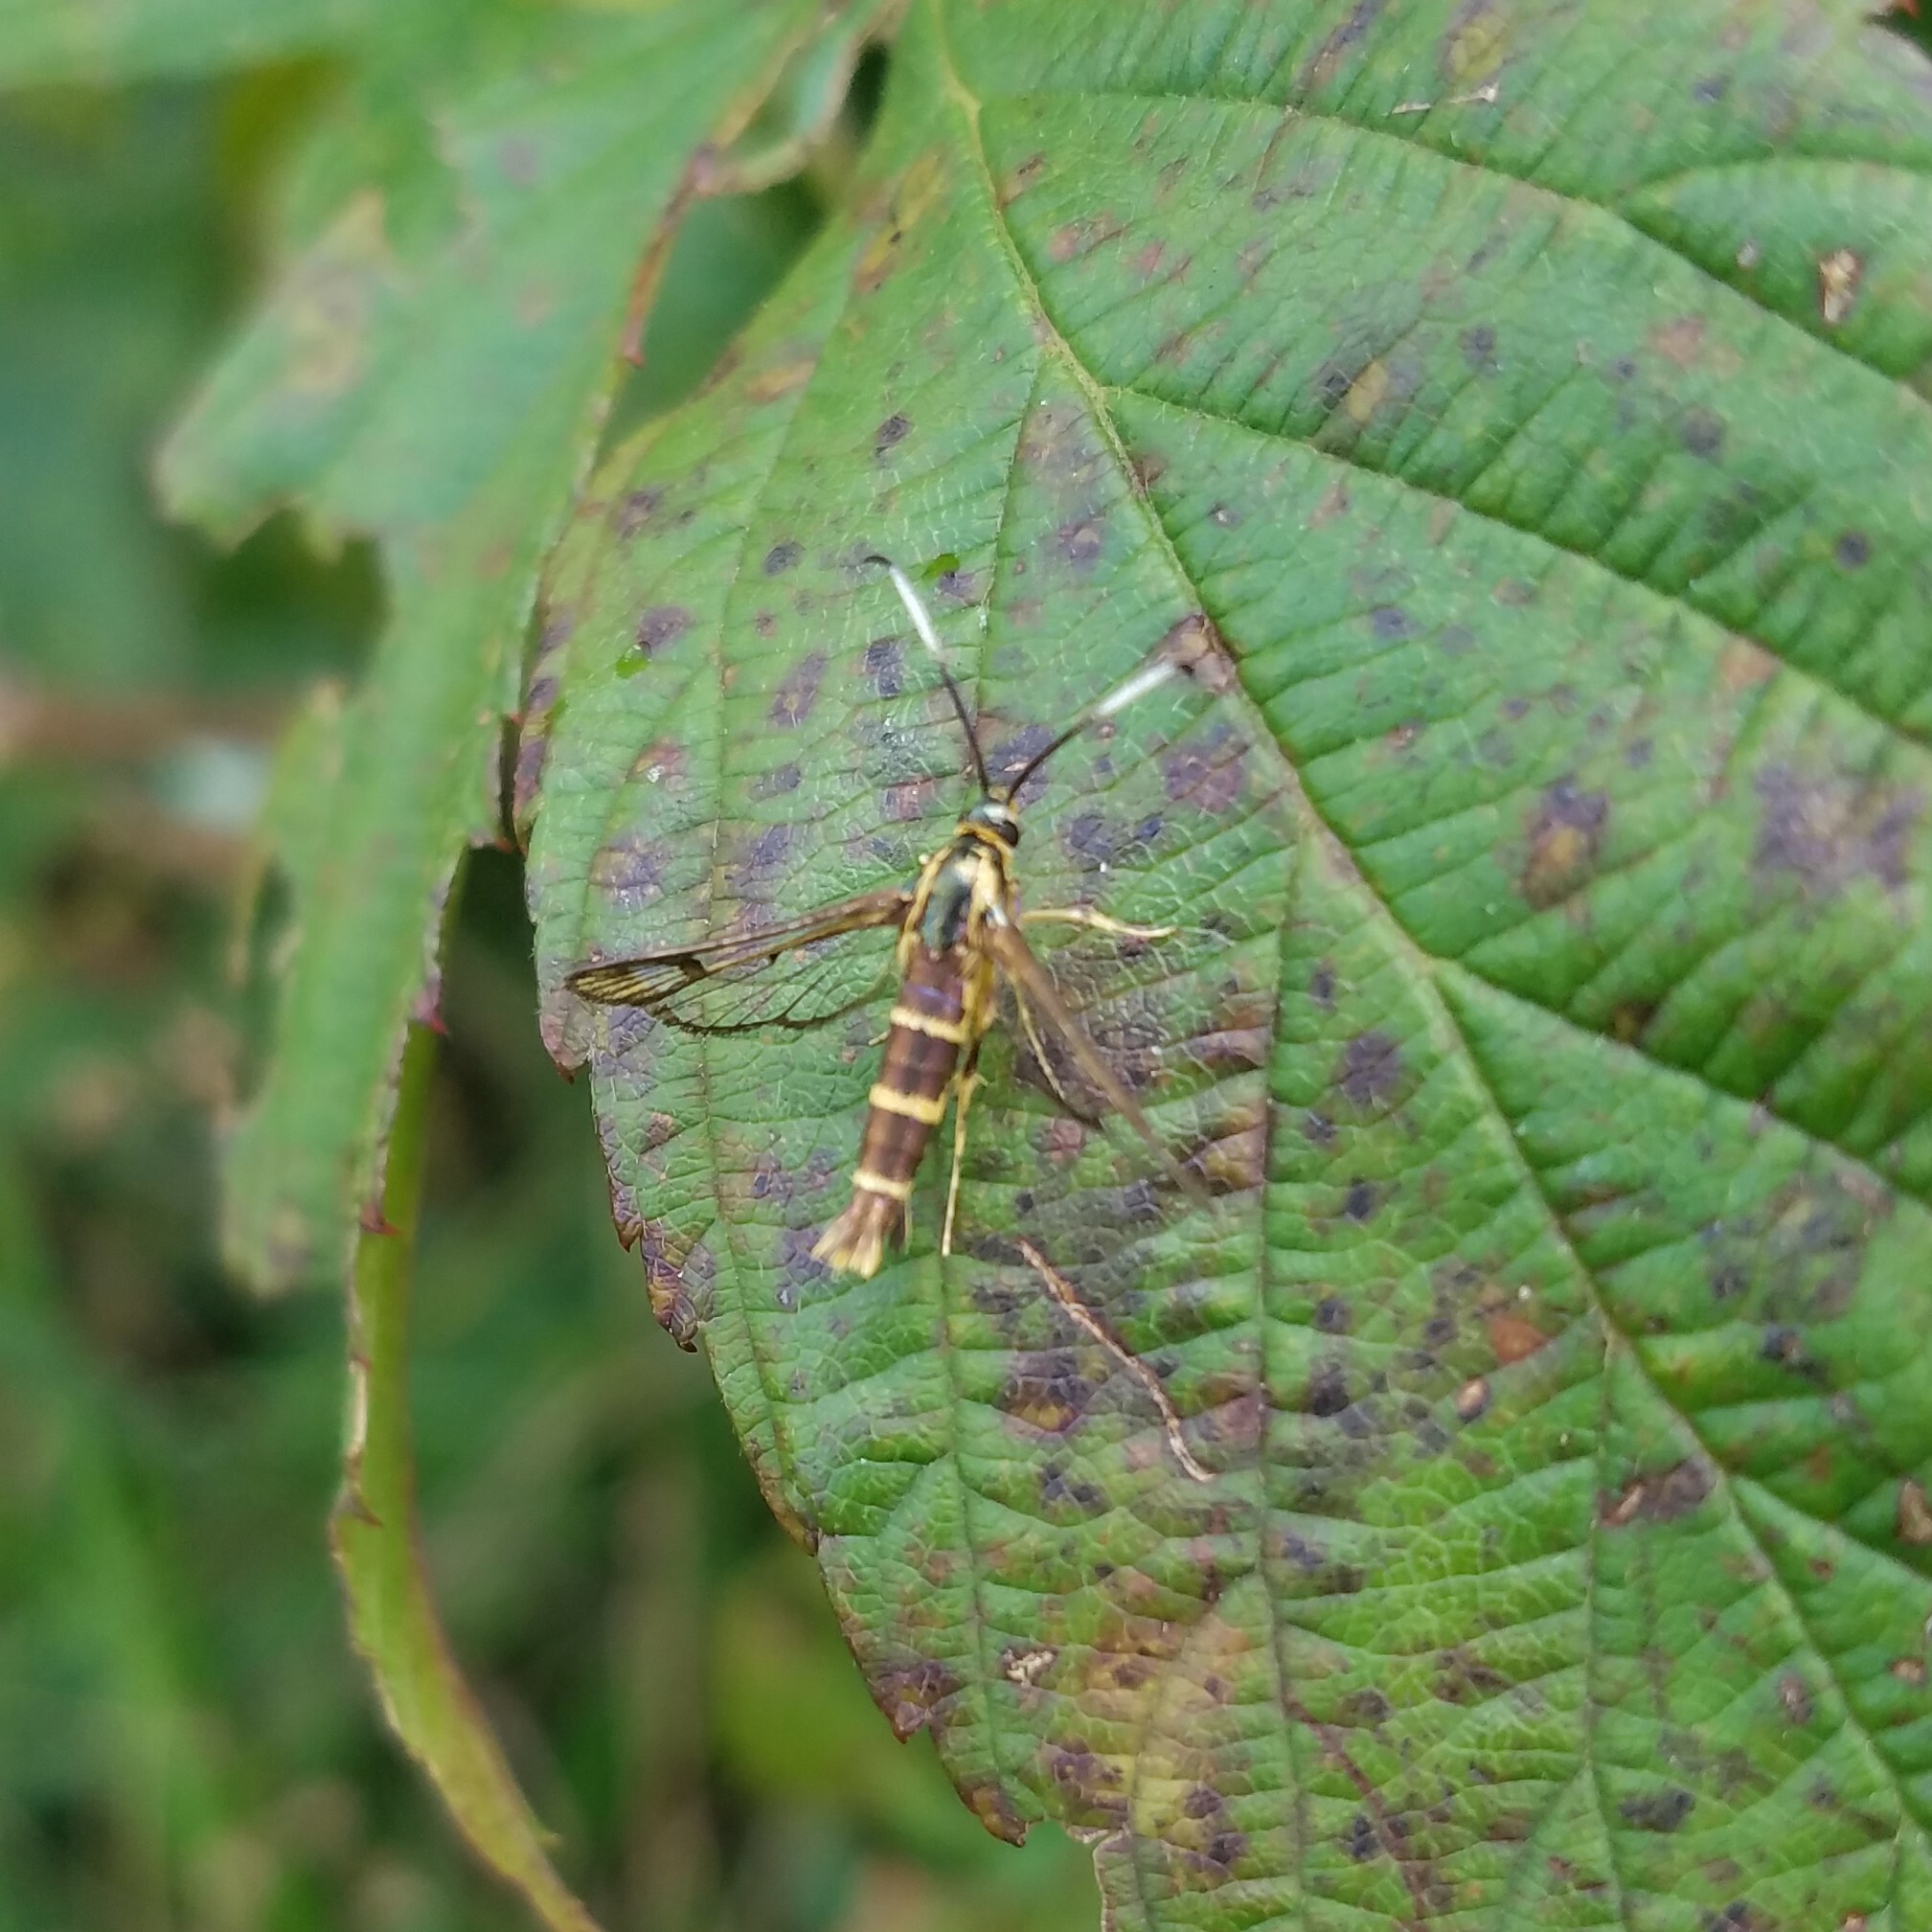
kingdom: Animalia
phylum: Arthropoda
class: Insecta
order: Lepidoptera
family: Sesiidae
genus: Carmenta
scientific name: Carmenta bassiformis
